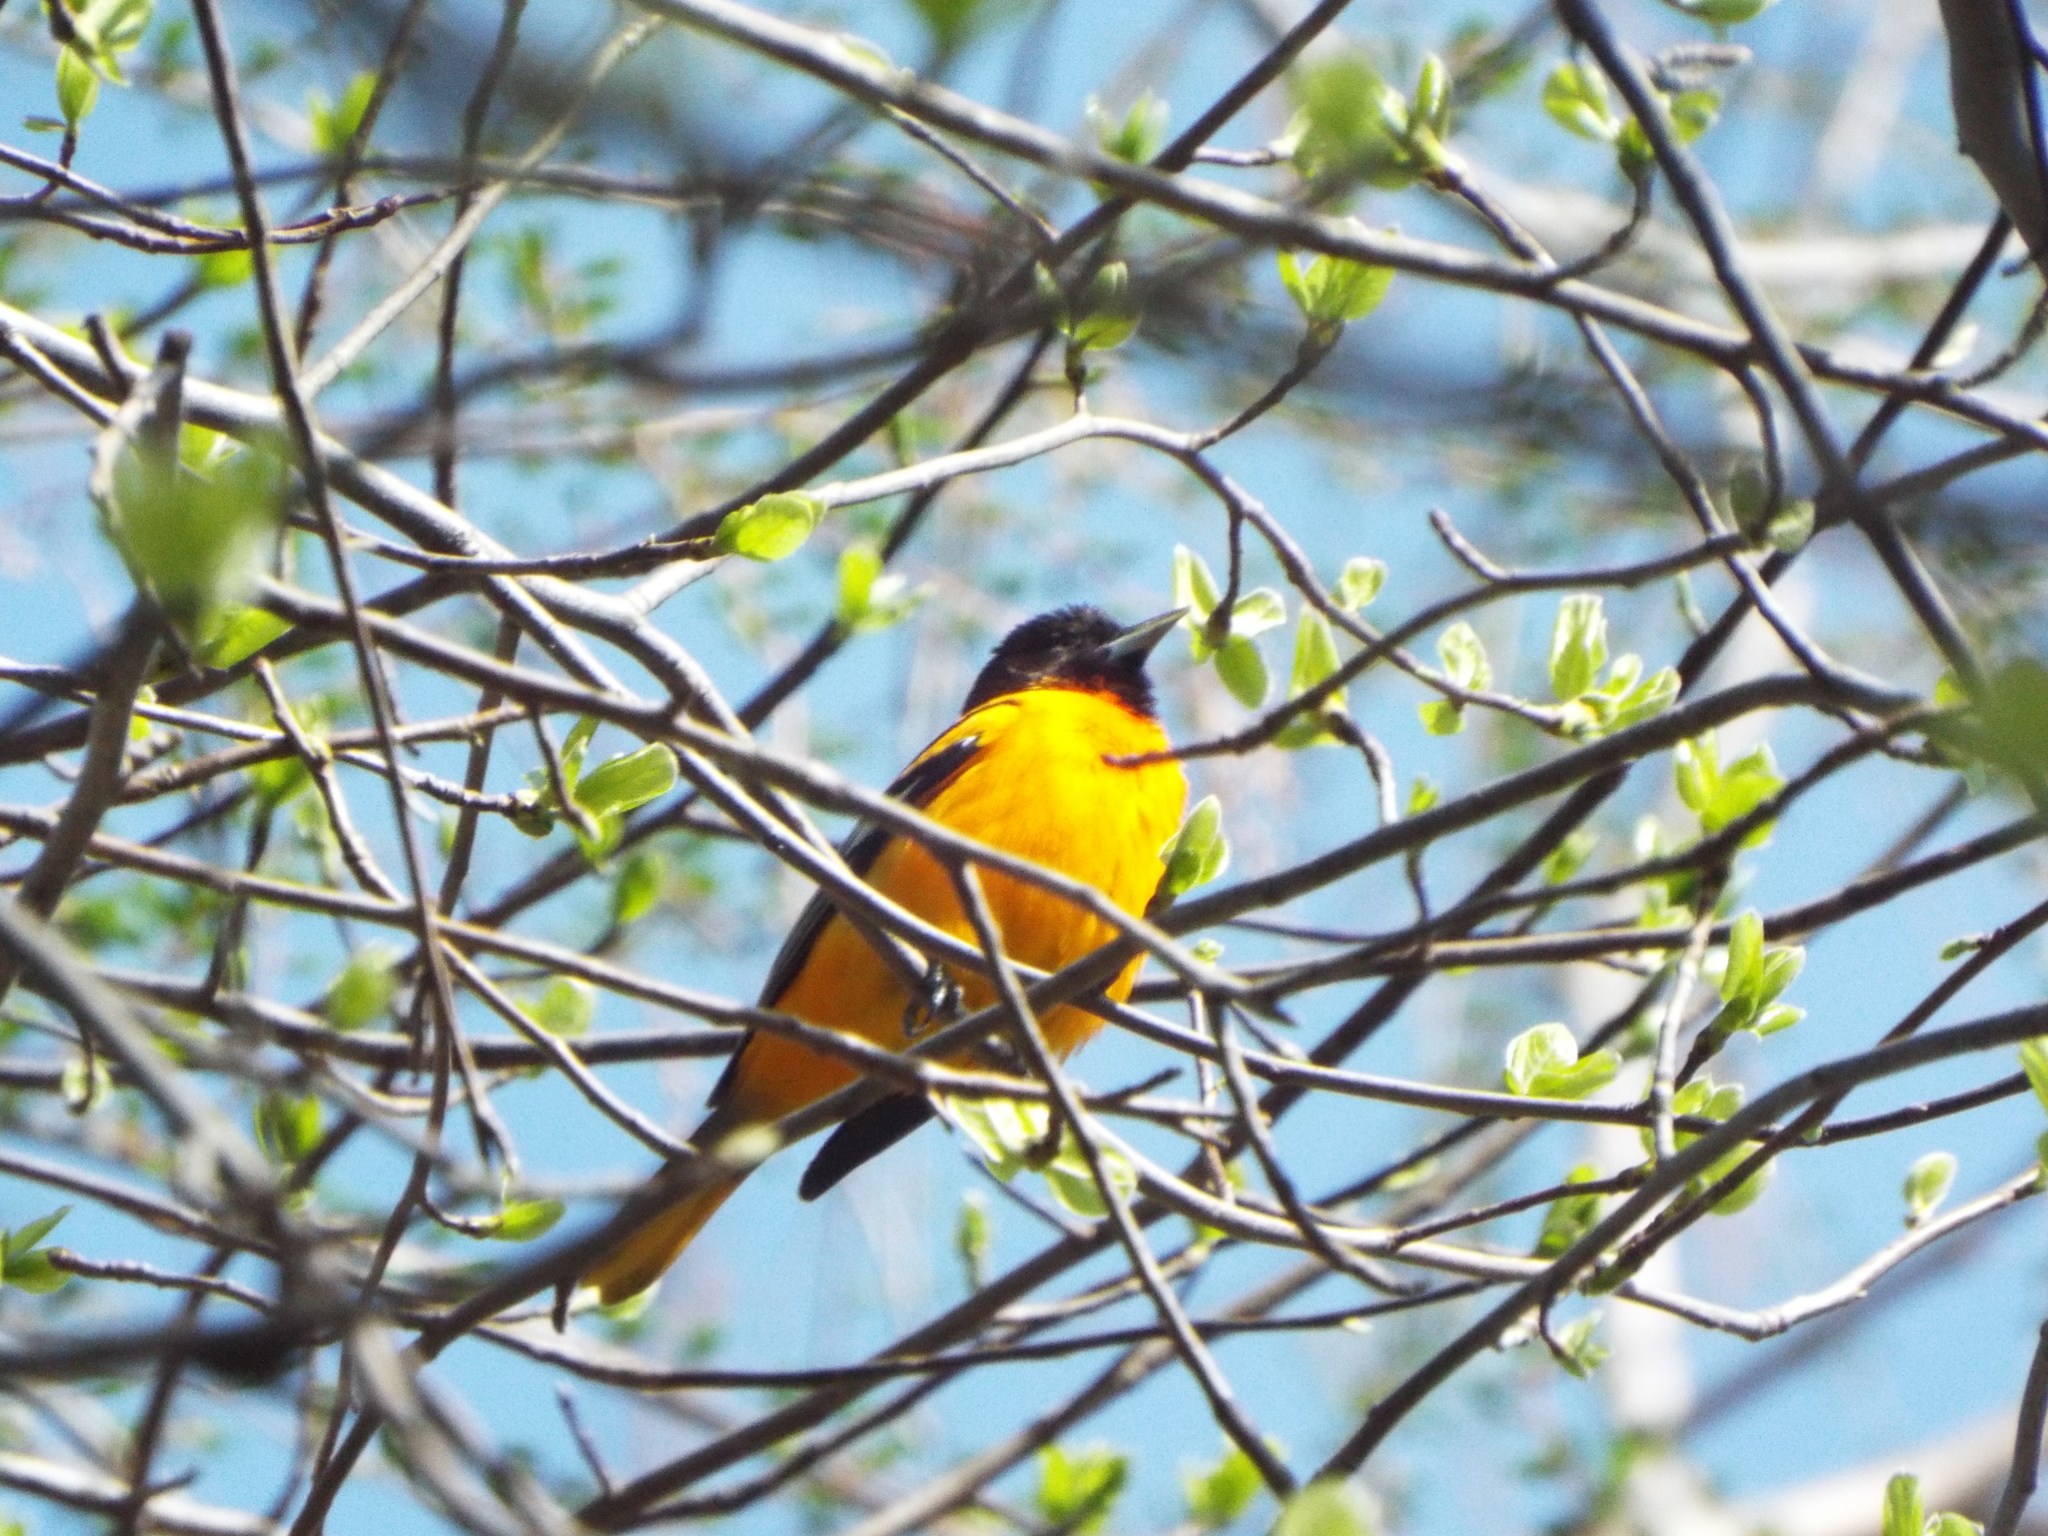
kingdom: Animalia
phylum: Chordata
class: Aves
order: Passeriformes
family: Icteridae
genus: Icterus
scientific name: Icterus galbula
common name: Baltimore oriole
